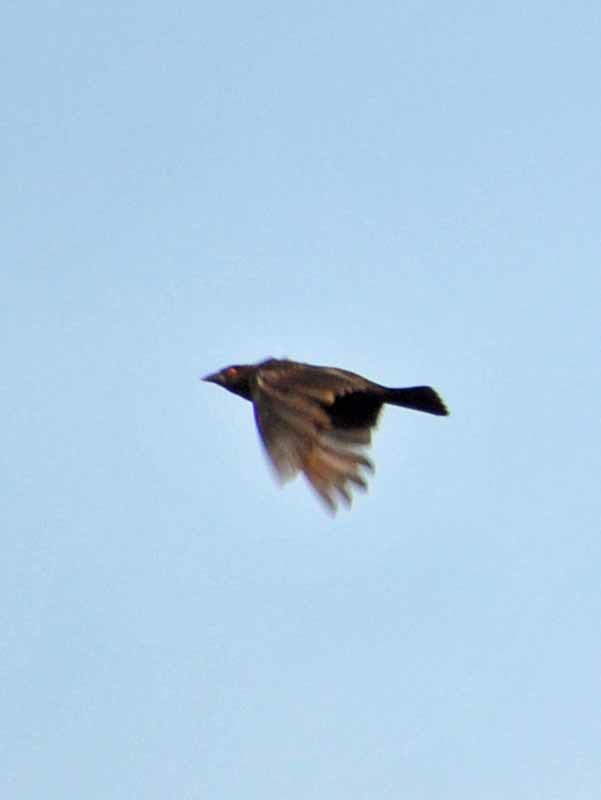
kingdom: Animalia
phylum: Chordata
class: Aves
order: Passeriformes
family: Icteridae
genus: Molothrus
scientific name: Molothrus aeneus
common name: Bronzed cowbird
